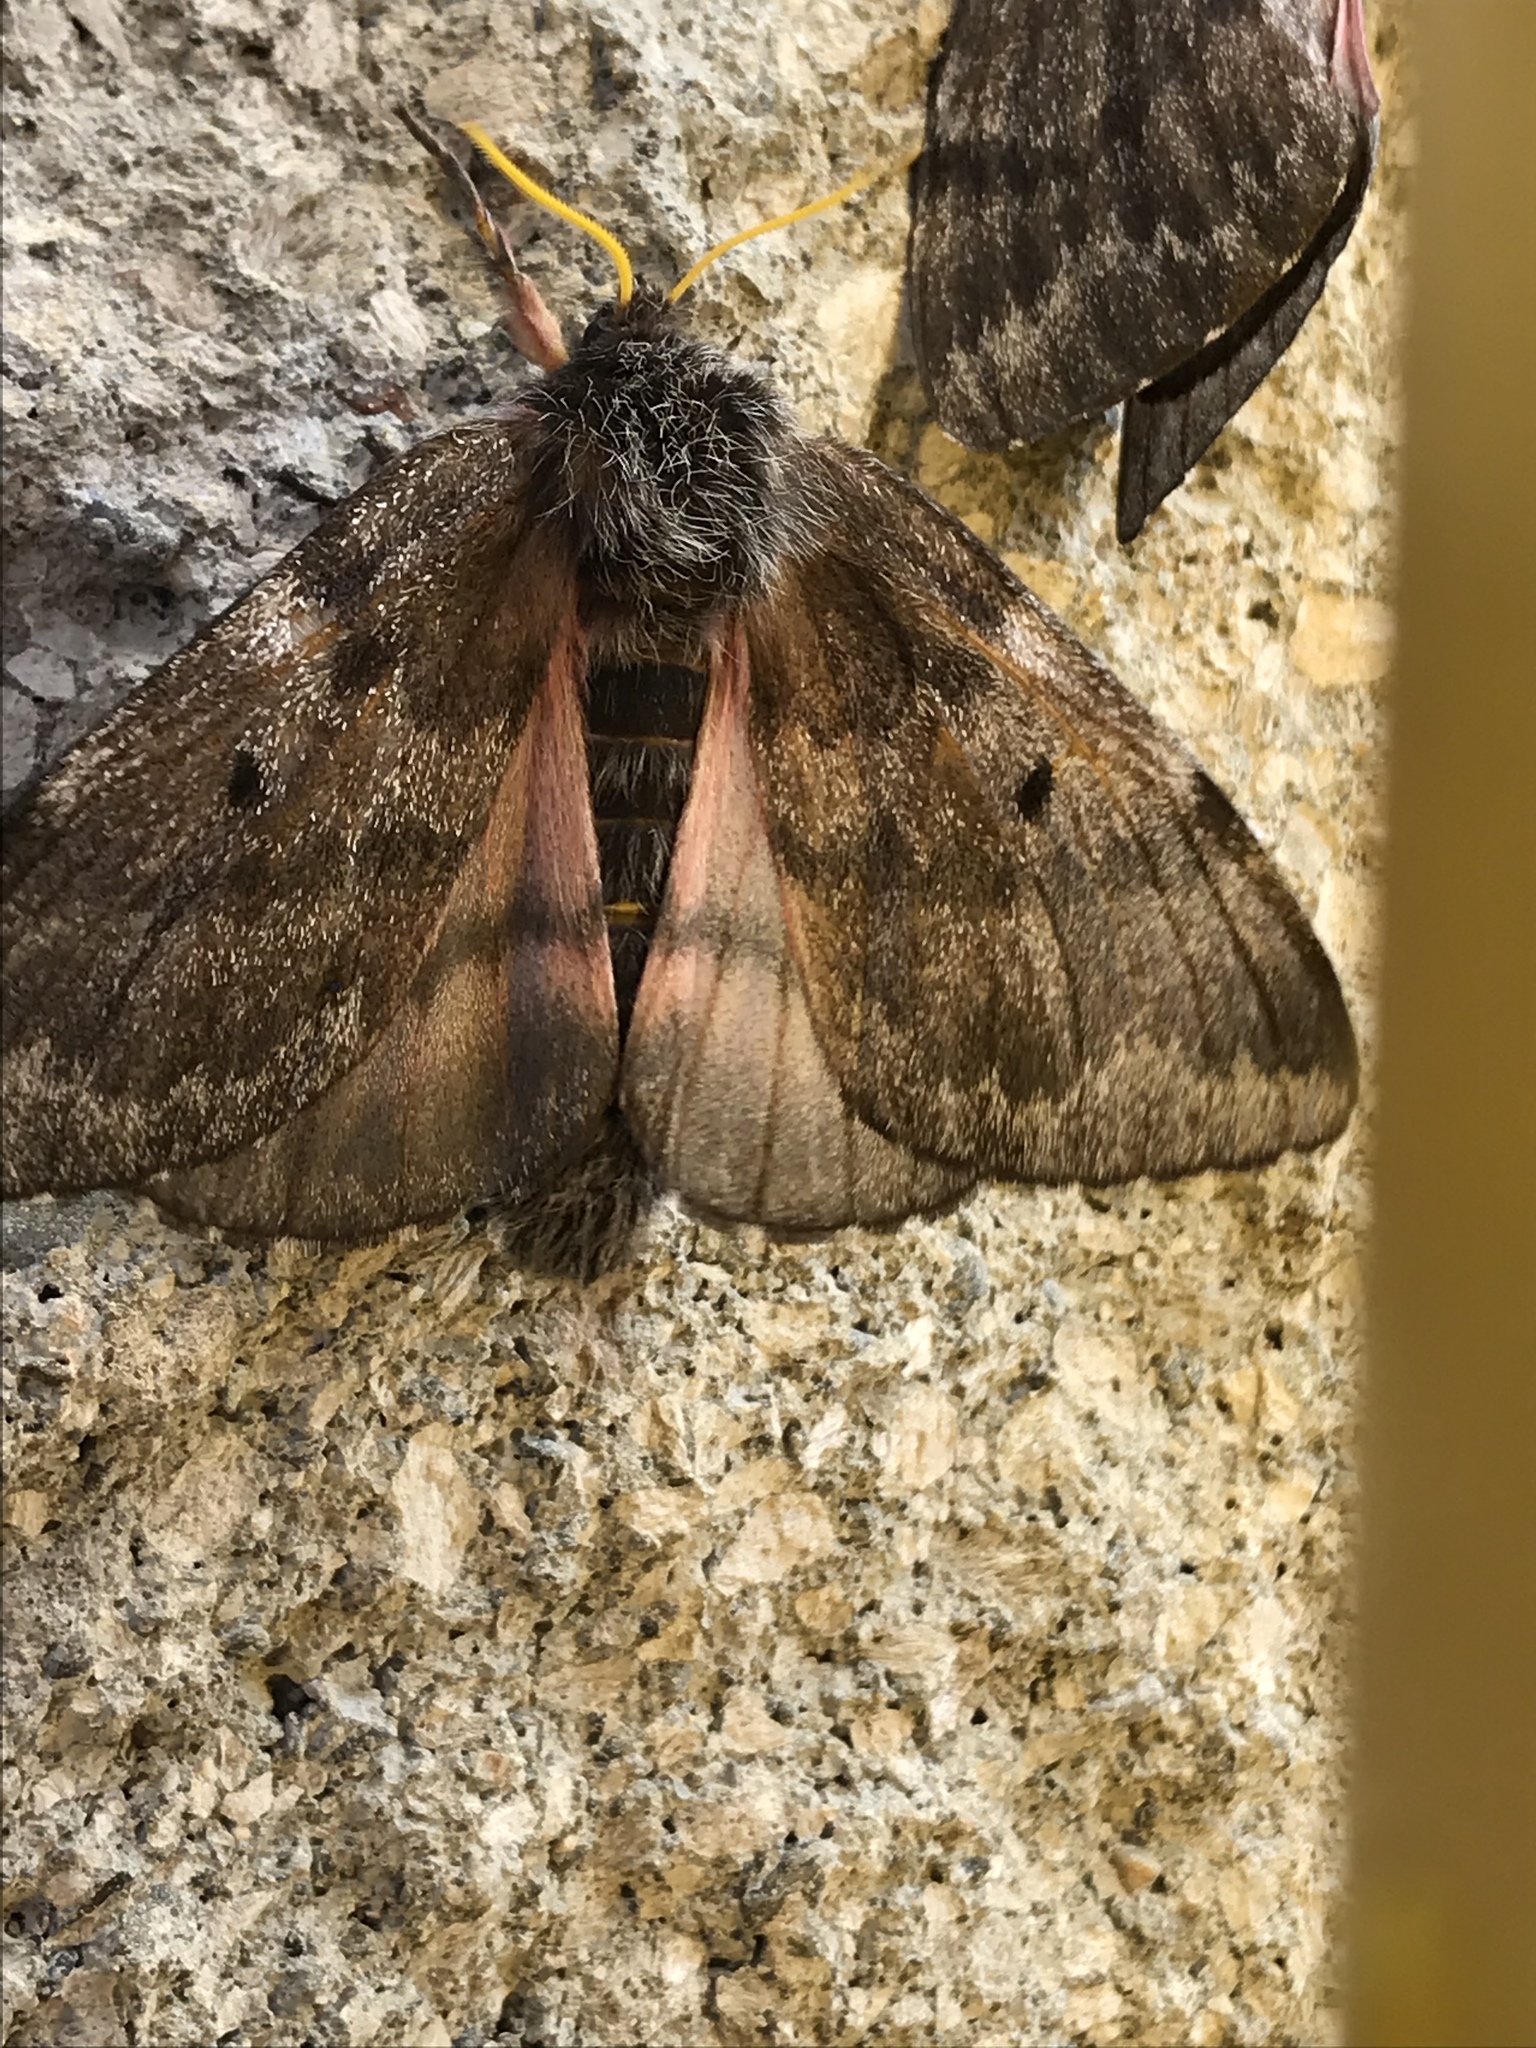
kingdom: Animalia
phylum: Arthropoda
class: Insecta
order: Lepidoptera
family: Saturniidae
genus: Coloradia
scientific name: Coloradia pandora
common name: Pandora pinemoth
